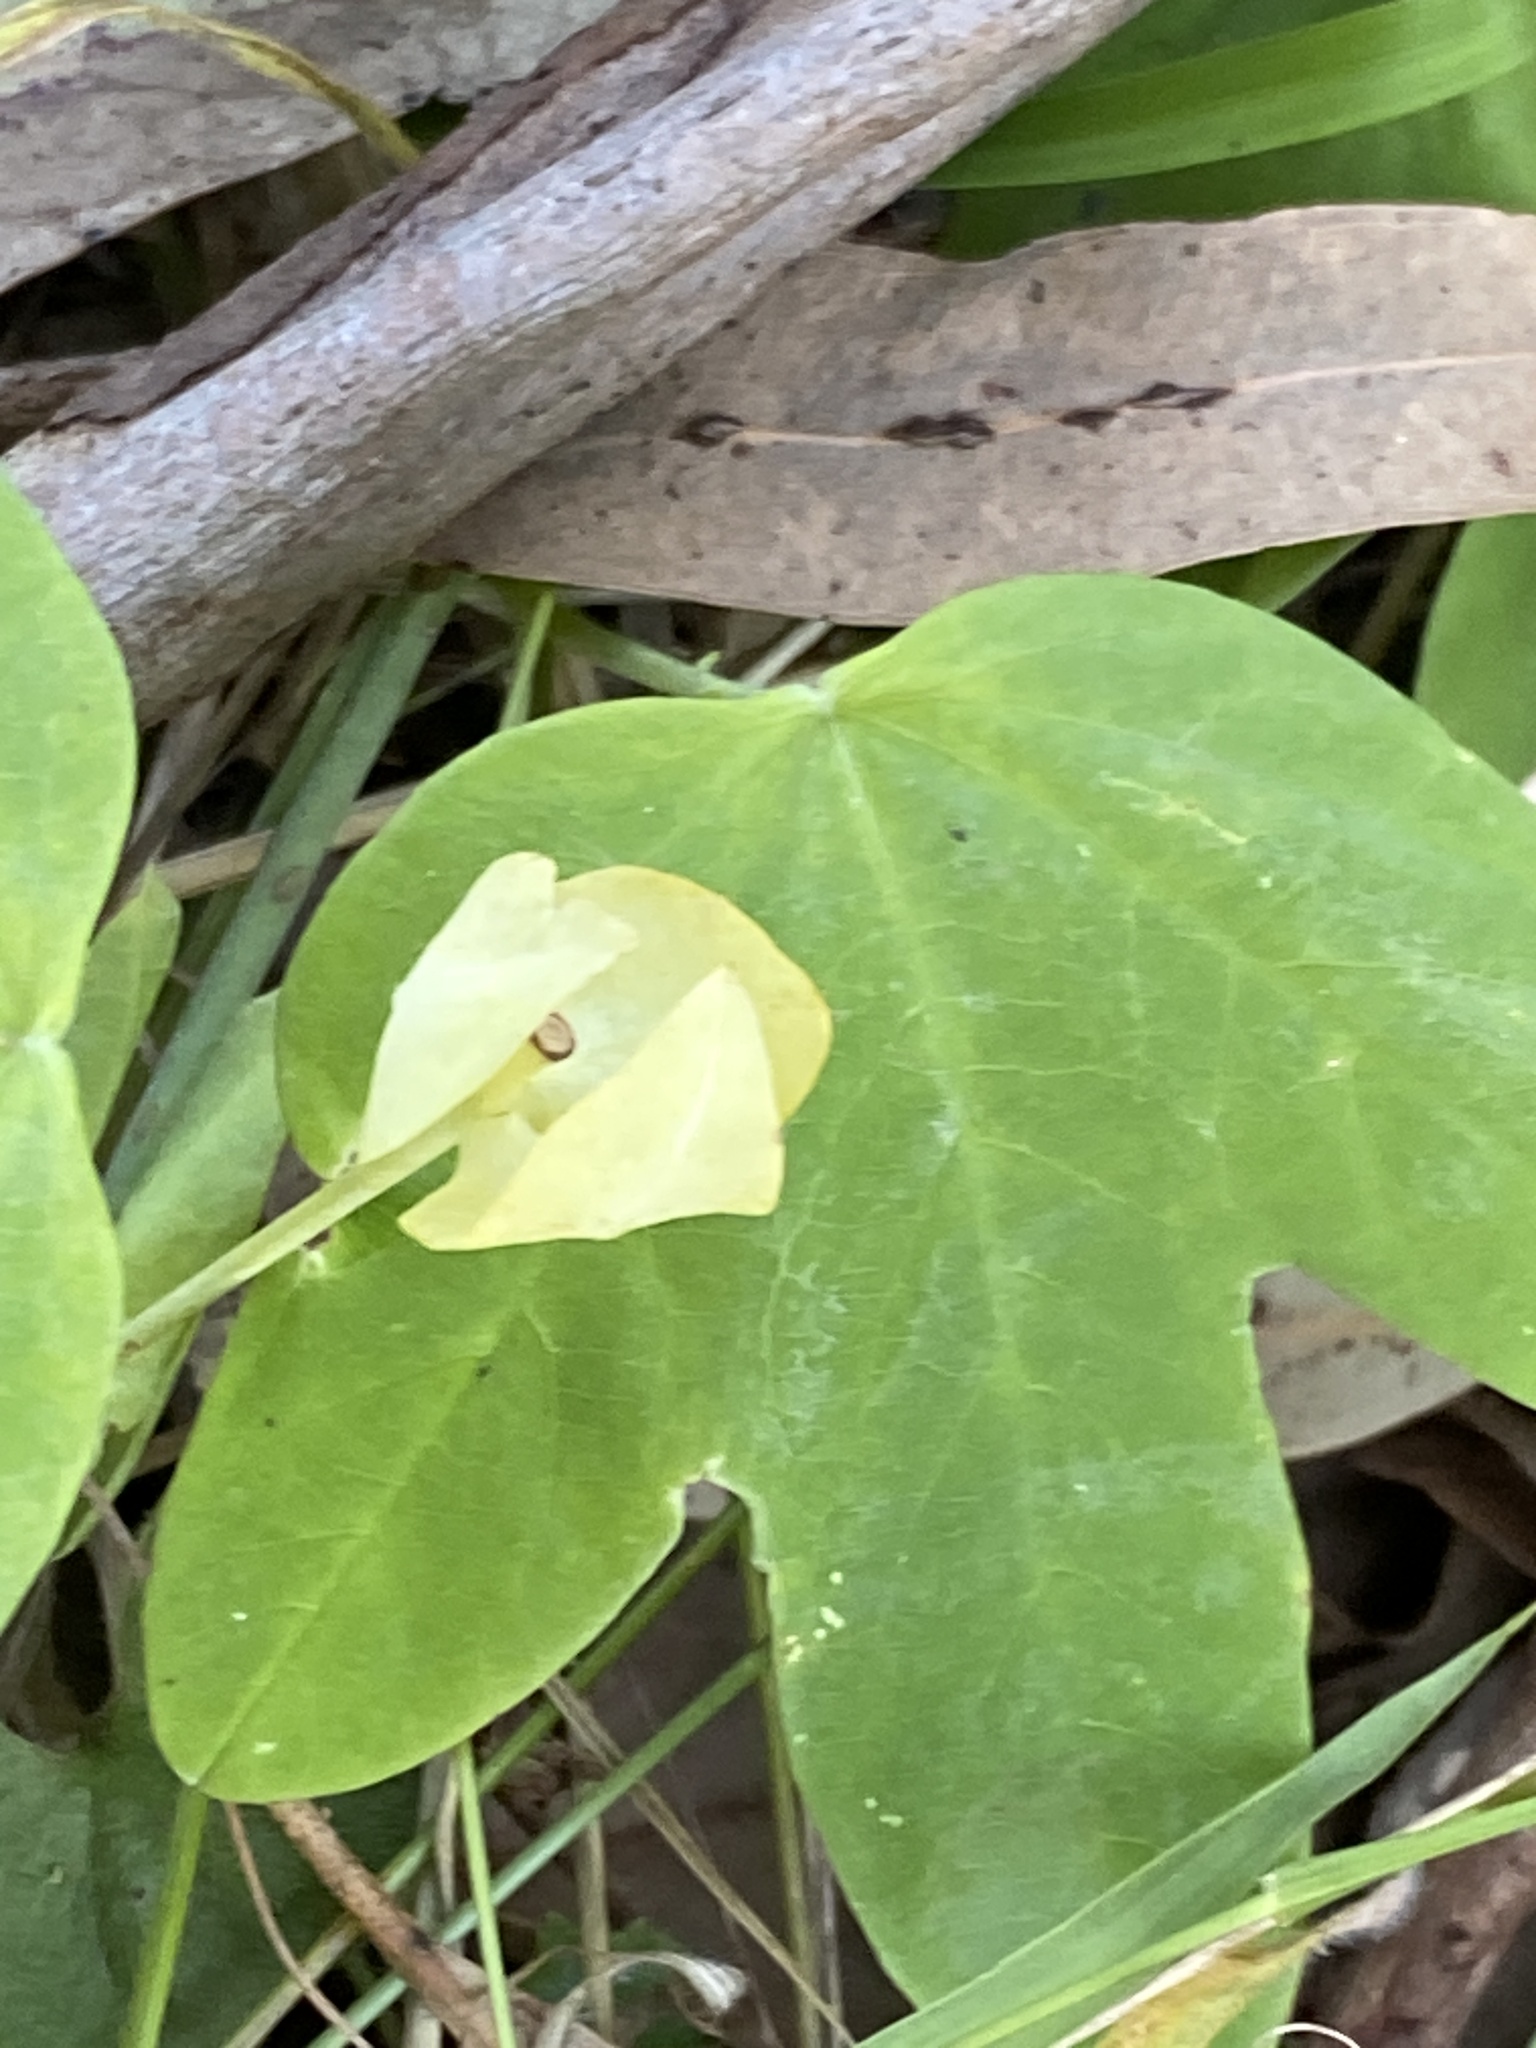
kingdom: Plantae
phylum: Tracheophyta
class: Magnoliopsida
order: Malpighiales
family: Passifloraceae
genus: Passiflora
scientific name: Passiflora subpeltata
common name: White passionflower
